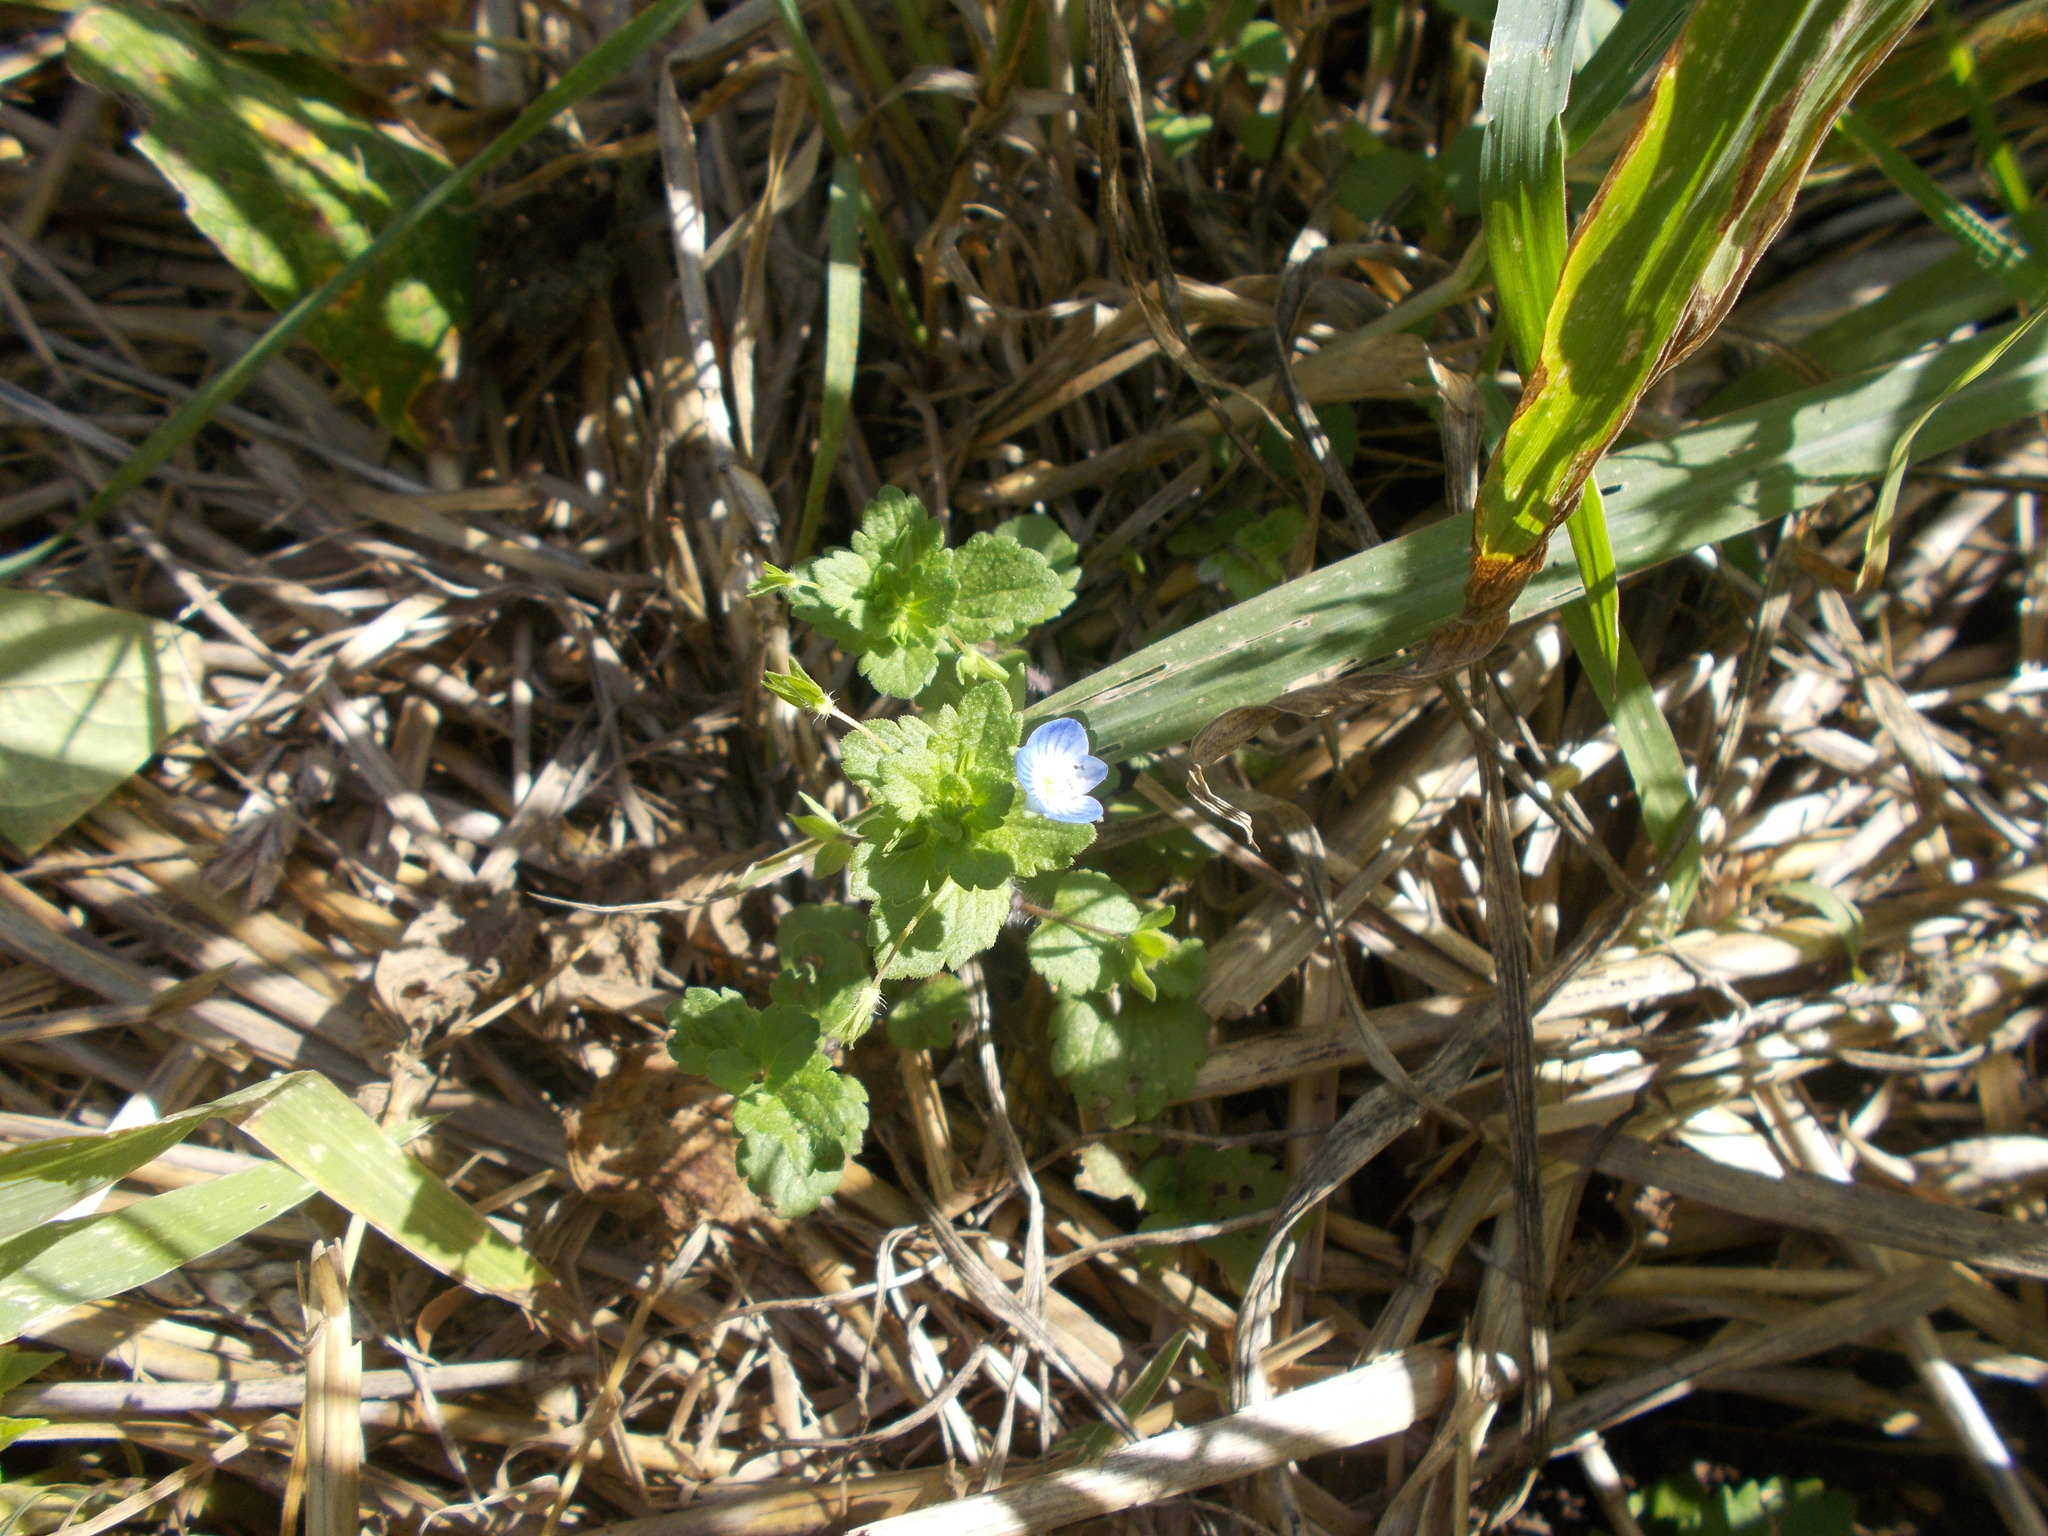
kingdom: Plantae
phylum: Tracheophyta
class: Magnoliopsida
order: Lamiales
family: Plantaginaceae
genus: Veronica
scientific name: Veronica persica
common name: Common field-speedwell
